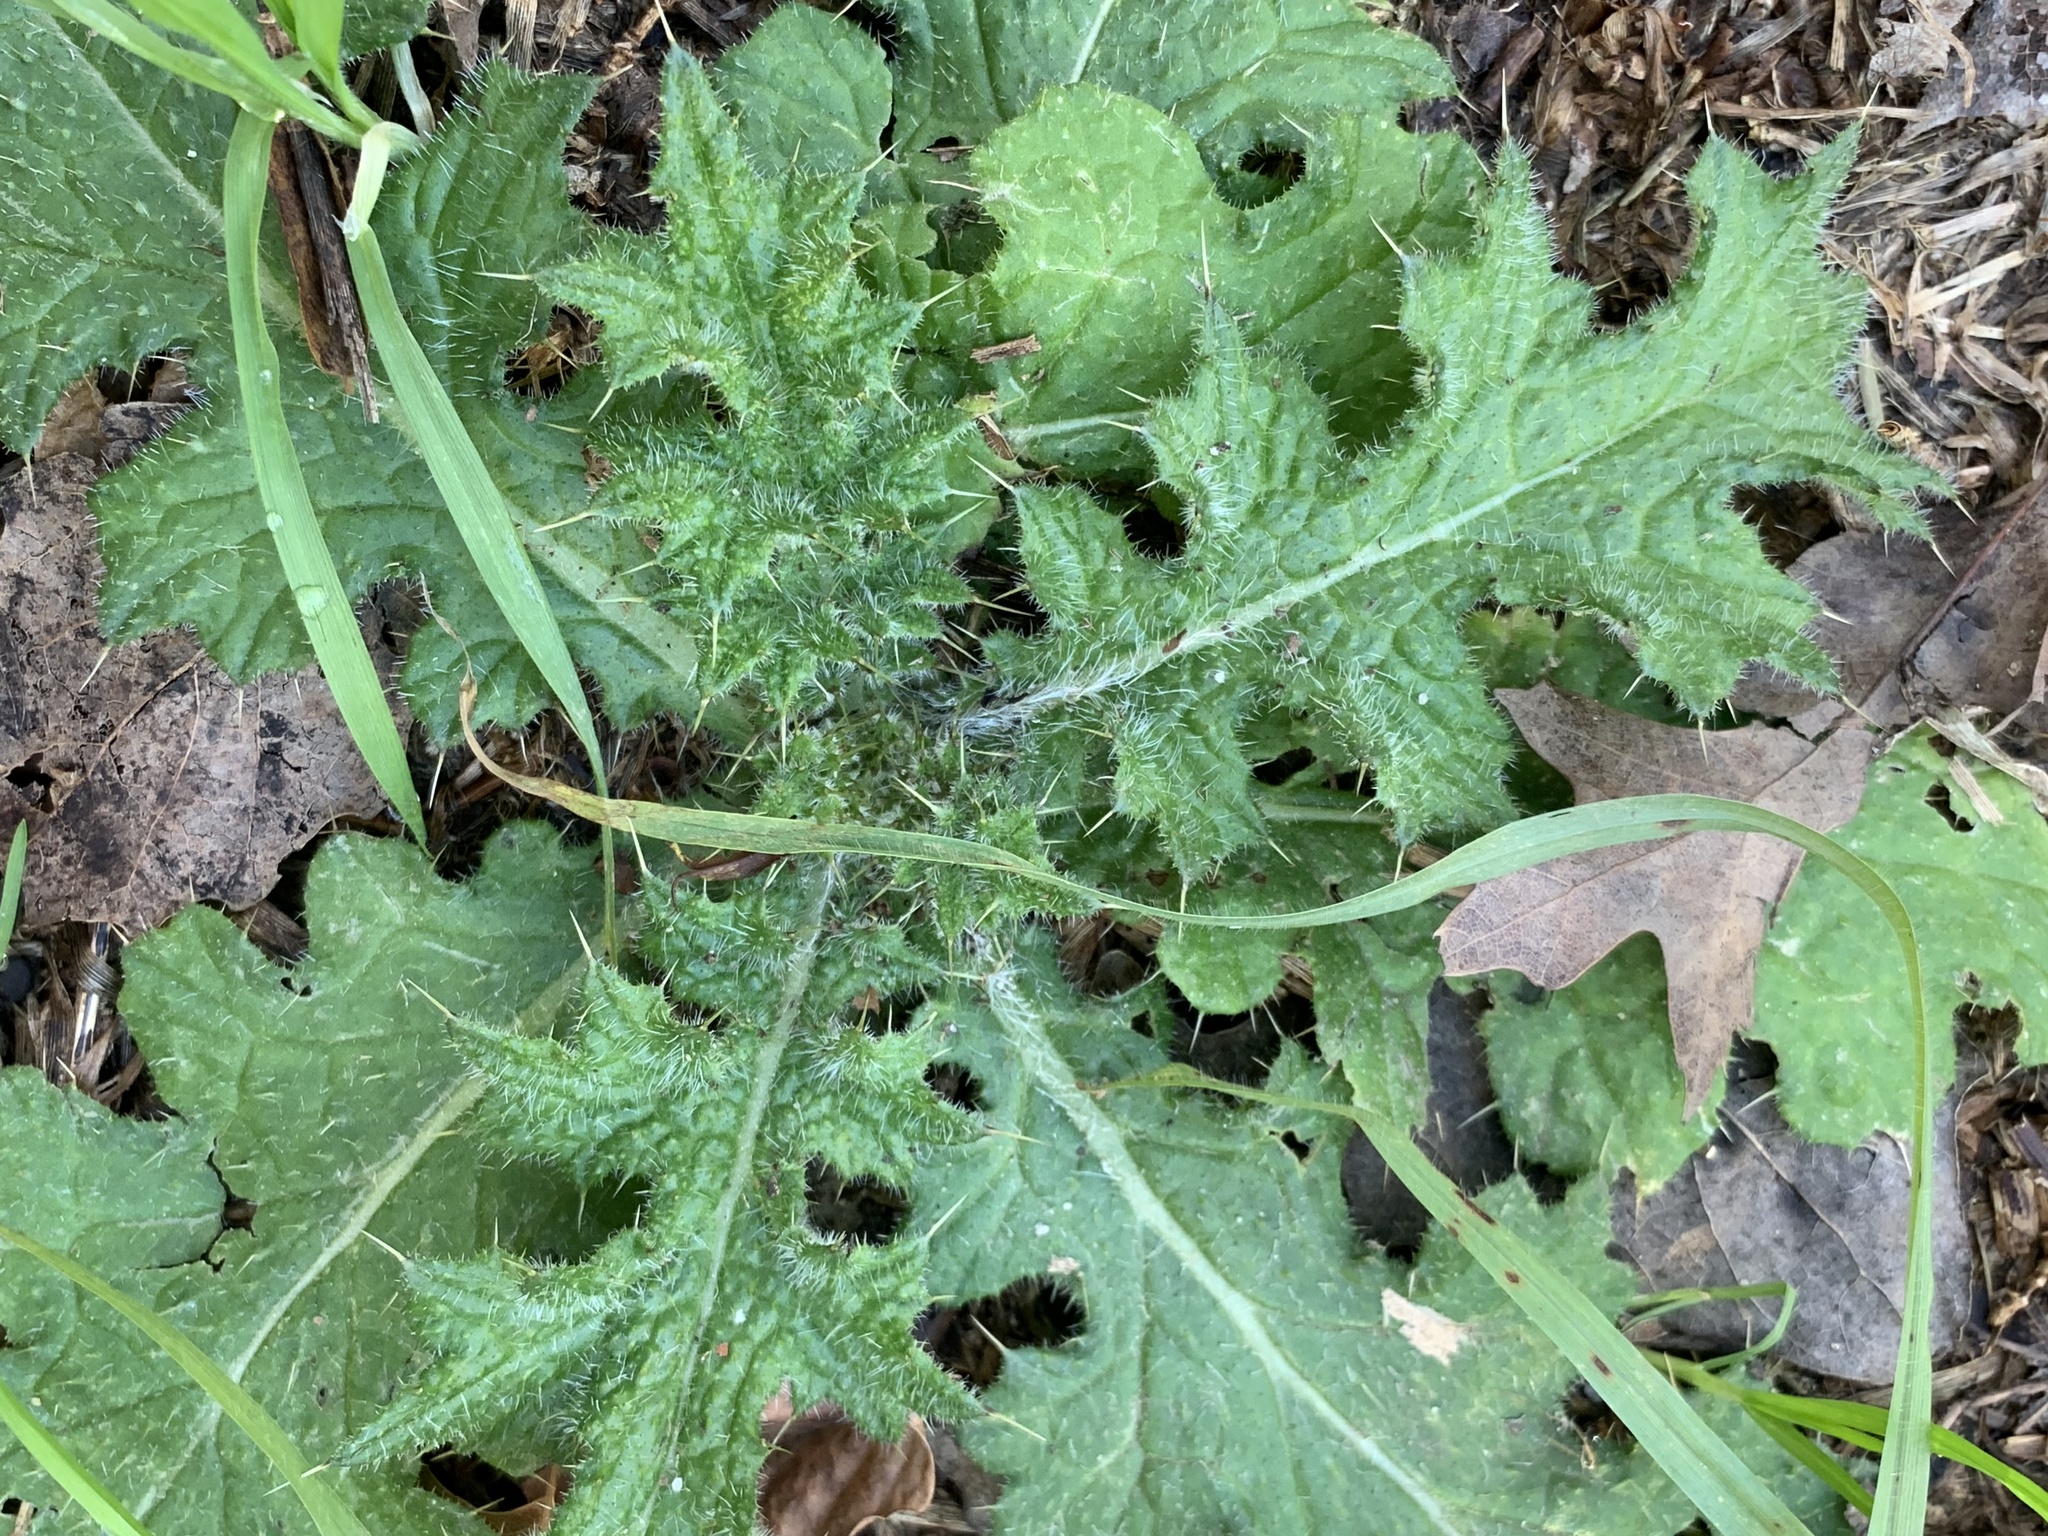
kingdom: Plantae
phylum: Tracheophyta
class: Magnoliopsida
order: Asterales
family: Asteraceae
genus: Cirsium
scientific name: Cirsium vulgare
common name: Bull thistle
